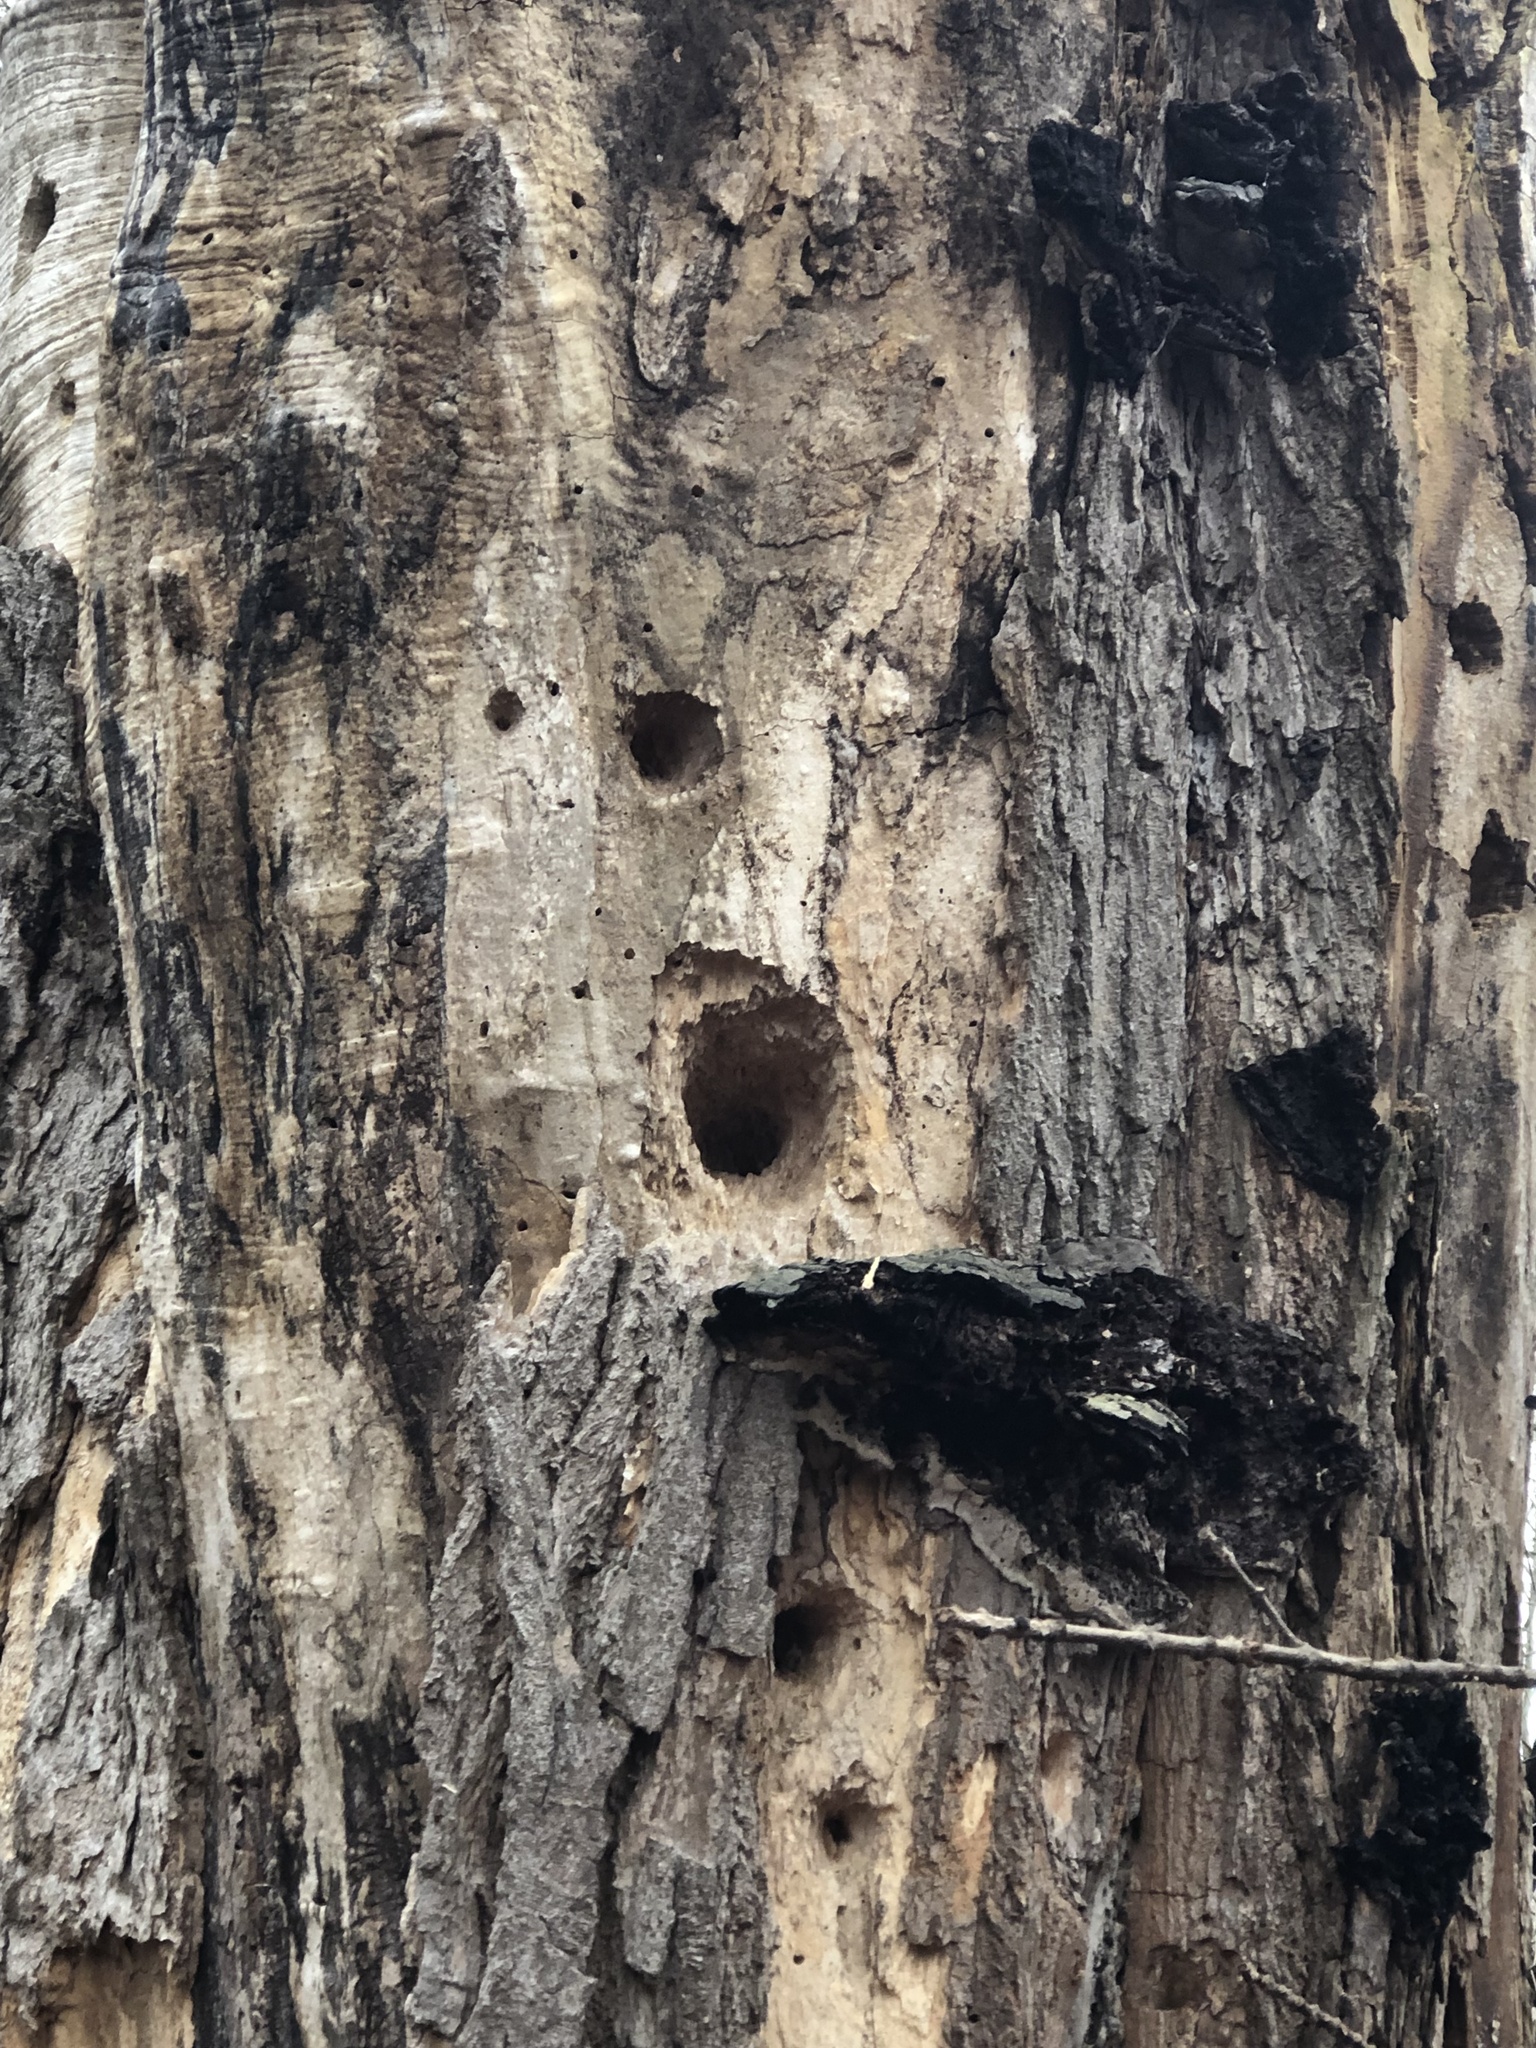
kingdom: Animalia
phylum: Chordata
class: Aves
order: Piciformes
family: Picidae
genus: Dryocopus
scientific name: Dryocopus pileatus
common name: Pileated woodpecker
